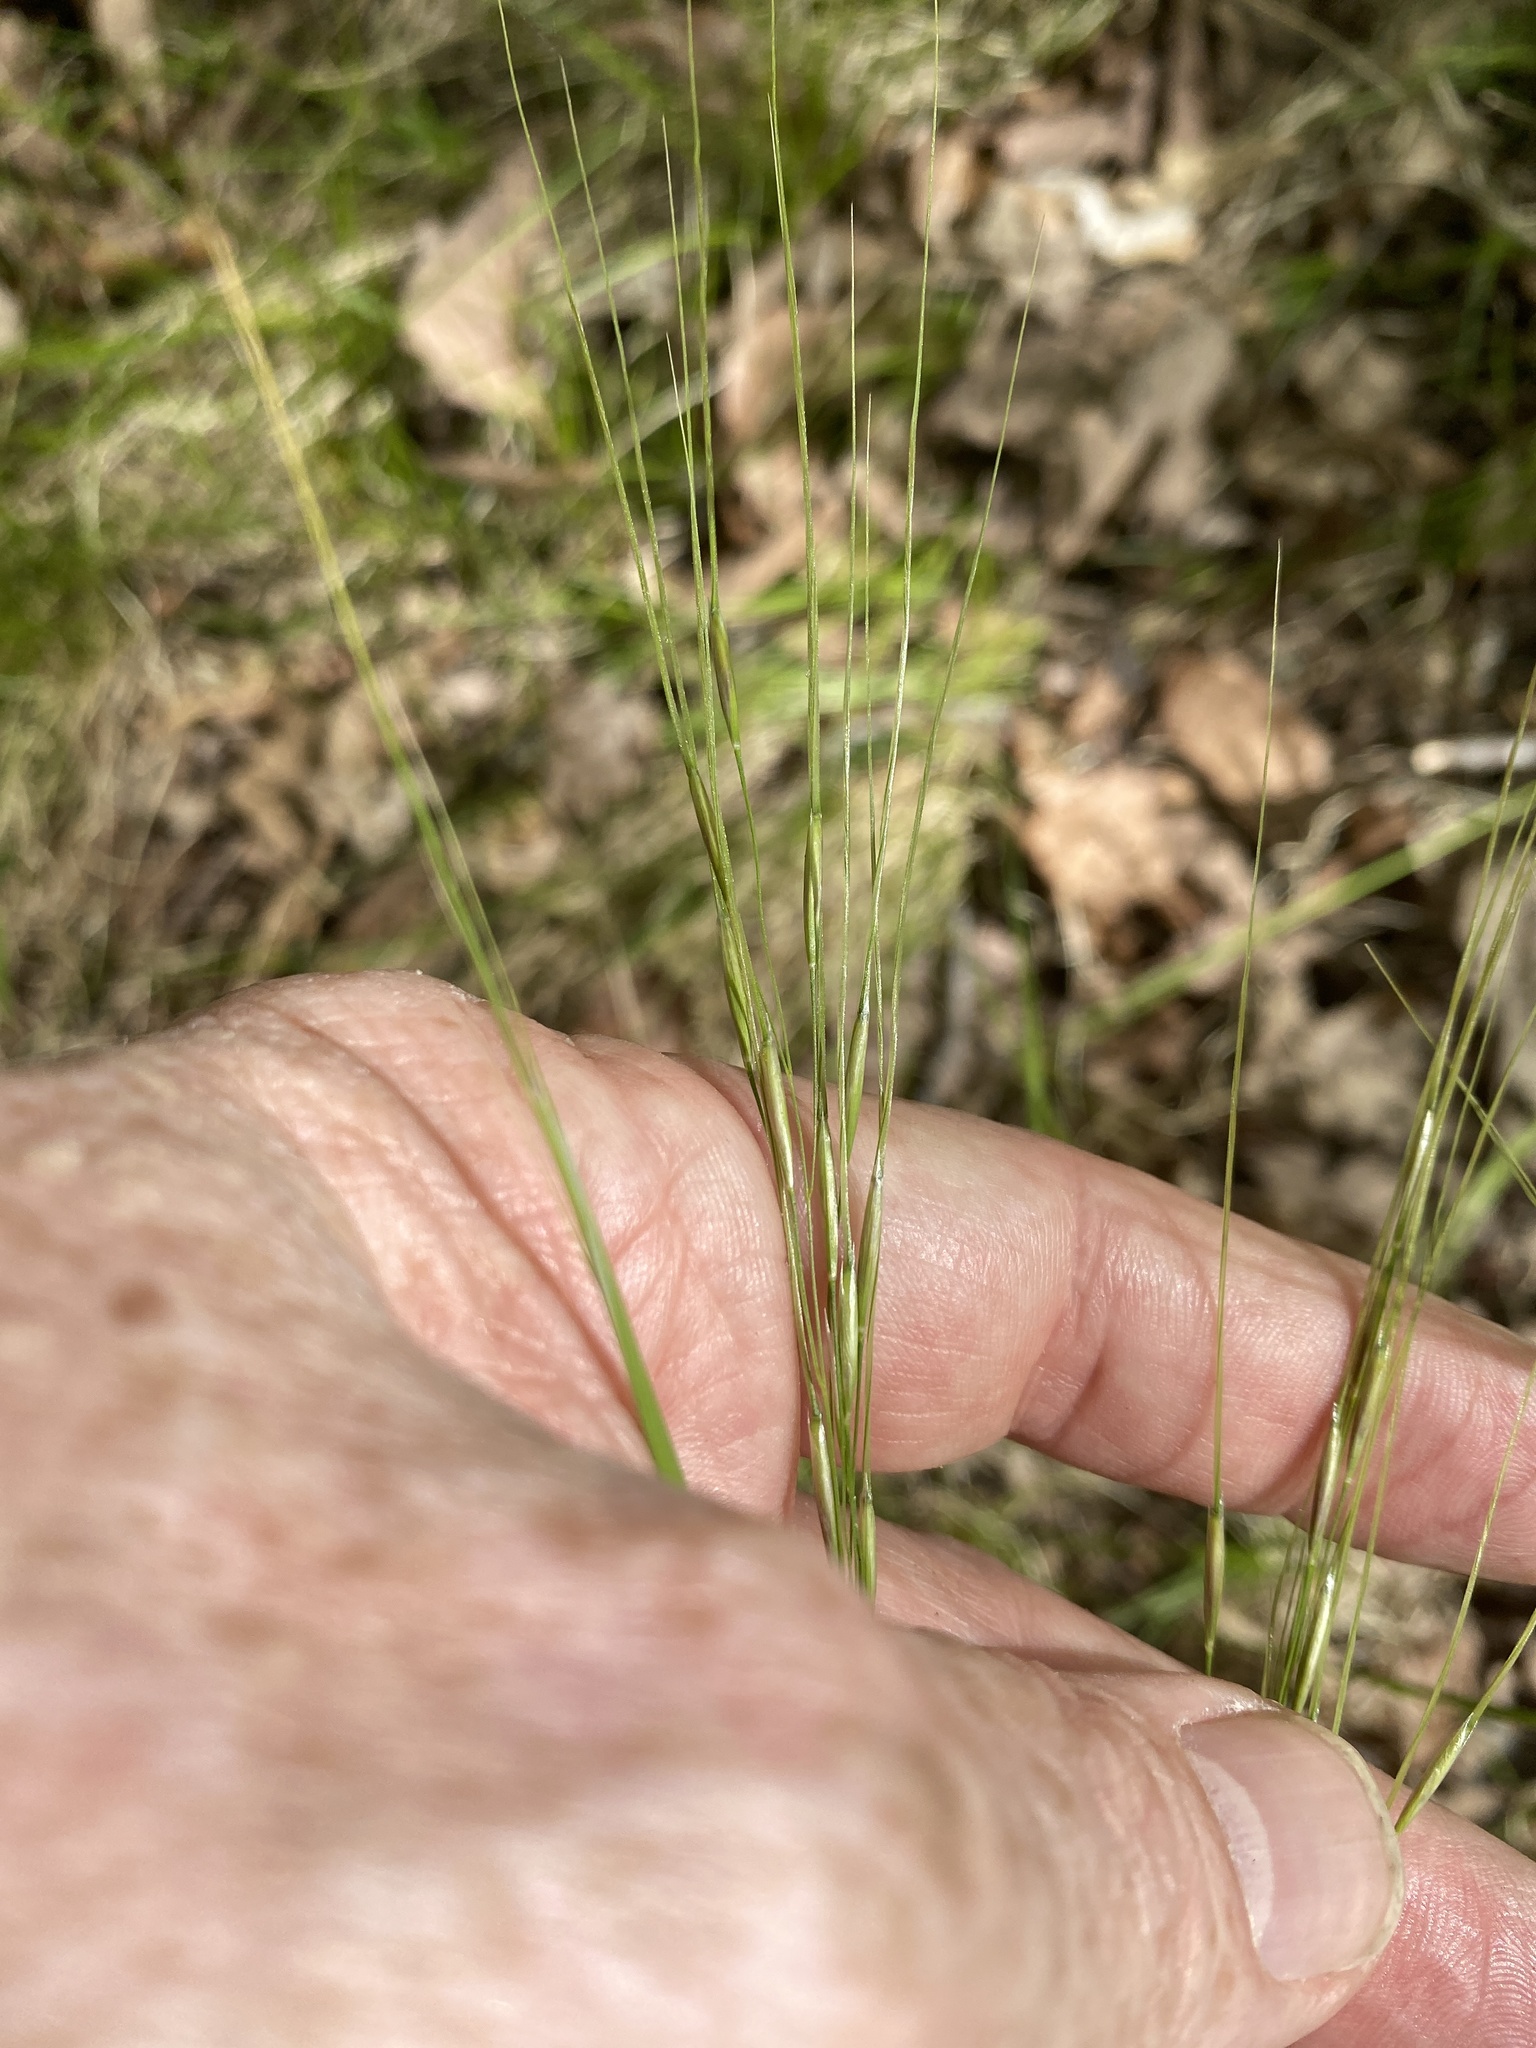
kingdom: Plantae
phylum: Tracheophyta
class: Liliopsida
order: Poales
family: Poaceae
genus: Piptochaetium
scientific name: Piptochaetium avenaceum
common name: Black bunchgrass
